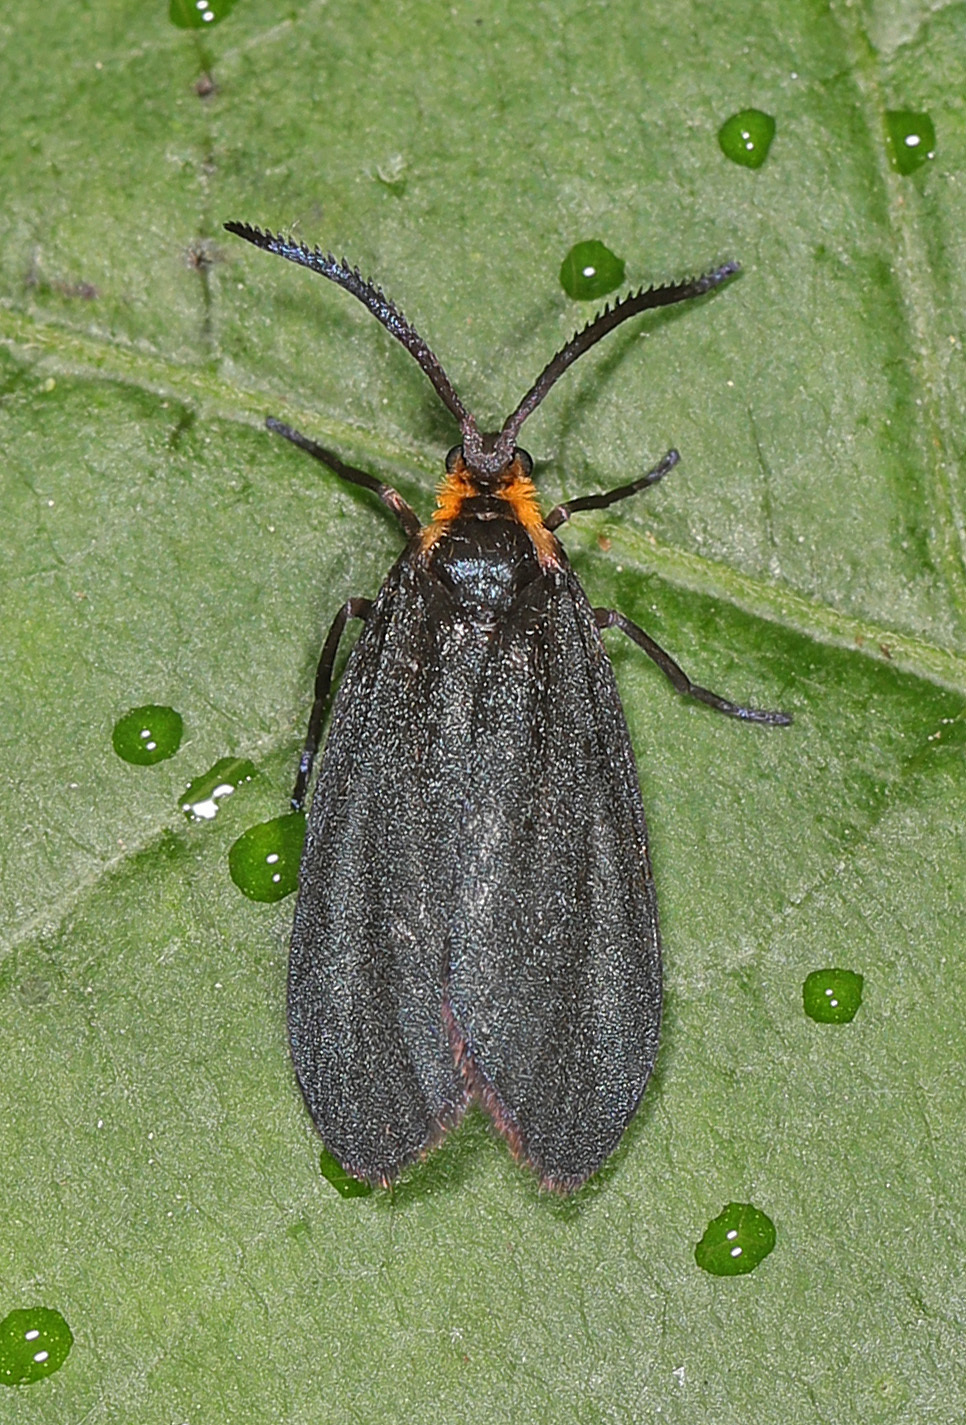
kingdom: Animalia
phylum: Arthropoda
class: Insecta
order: Lepidoptera
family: Zygaenidae
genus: Acoloithus
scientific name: Acoloithus falsarius
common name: Clemens' false skeletonizer
